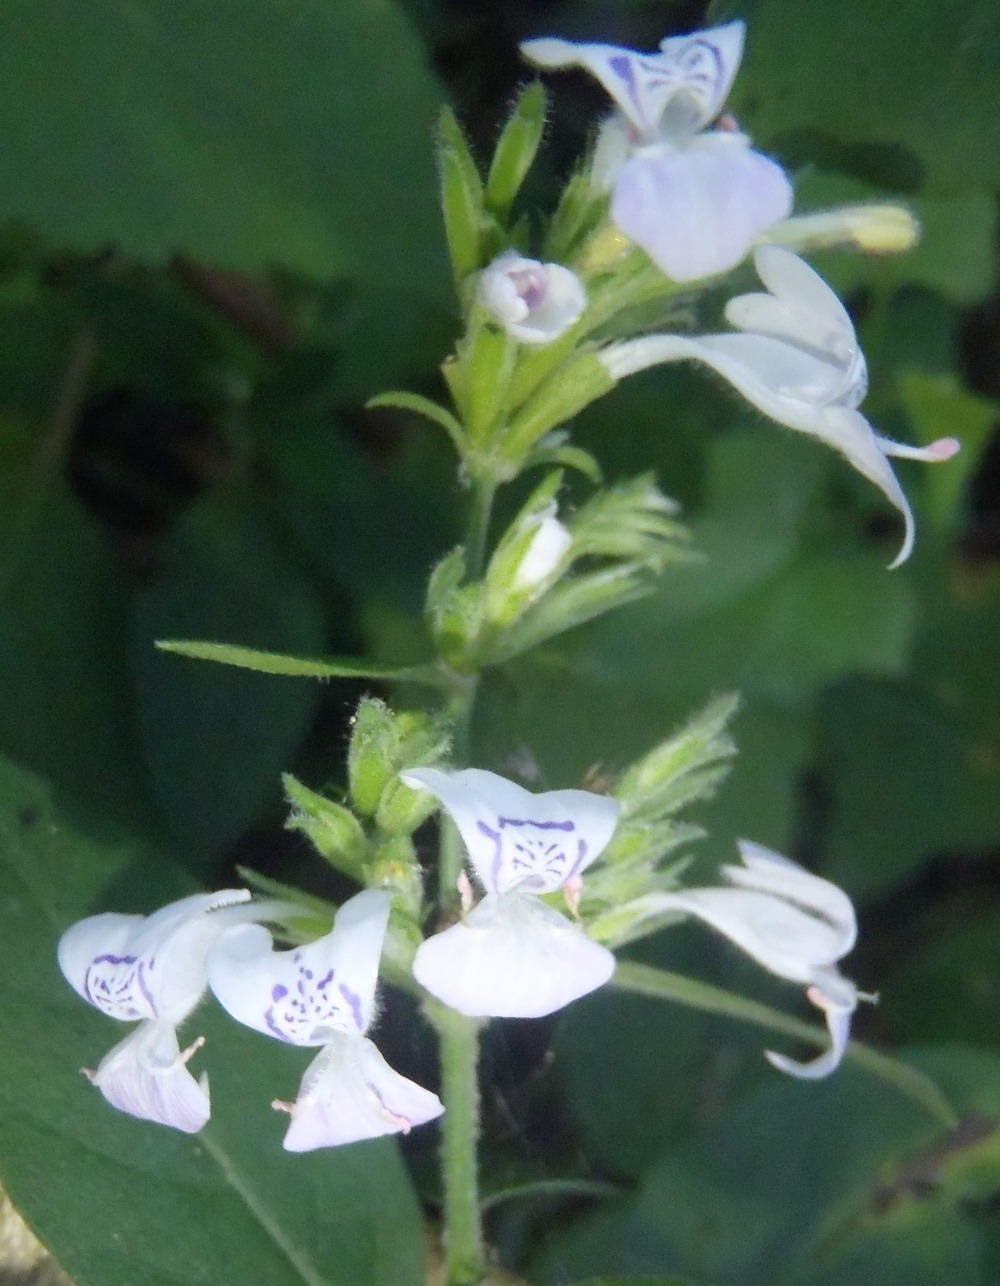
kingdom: Plantae
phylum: Tracheophyta
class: Magnoliopsida
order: Lamiales
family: Acanthaceae
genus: Hypoestes
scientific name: Hypoestes forskaolii
